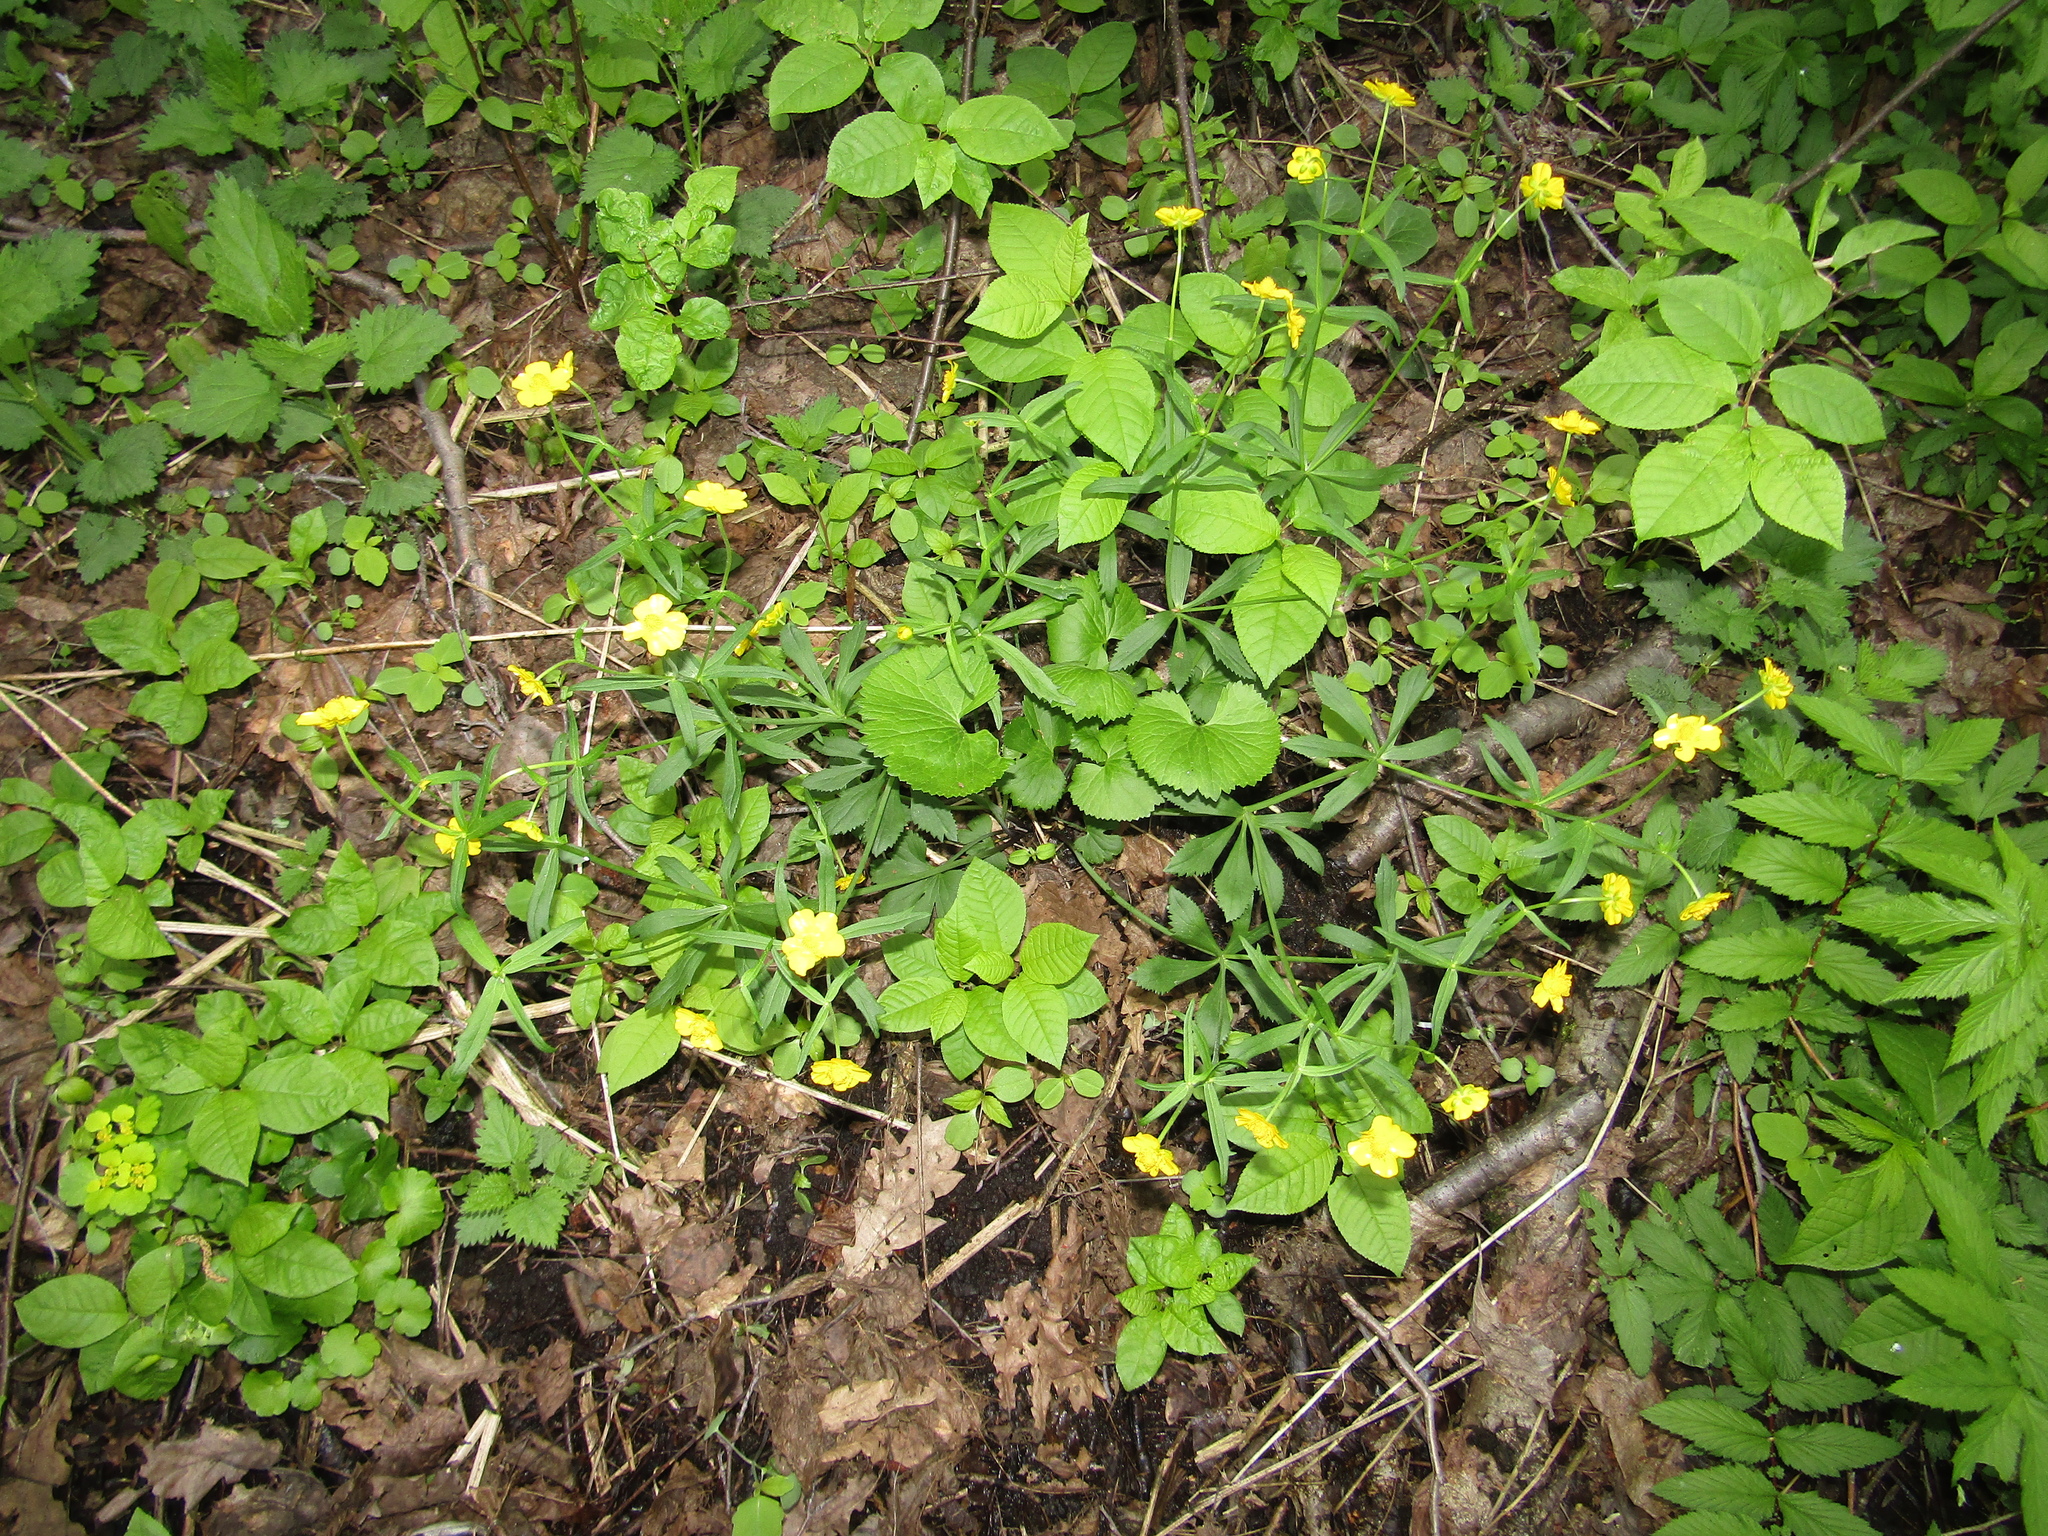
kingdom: Plantae
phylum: Tracheophyta
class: Magnoliopsida
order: Ranunculales
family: Ranunculaceae
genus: Ranunculus
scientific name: Ranunculus cassubicus
